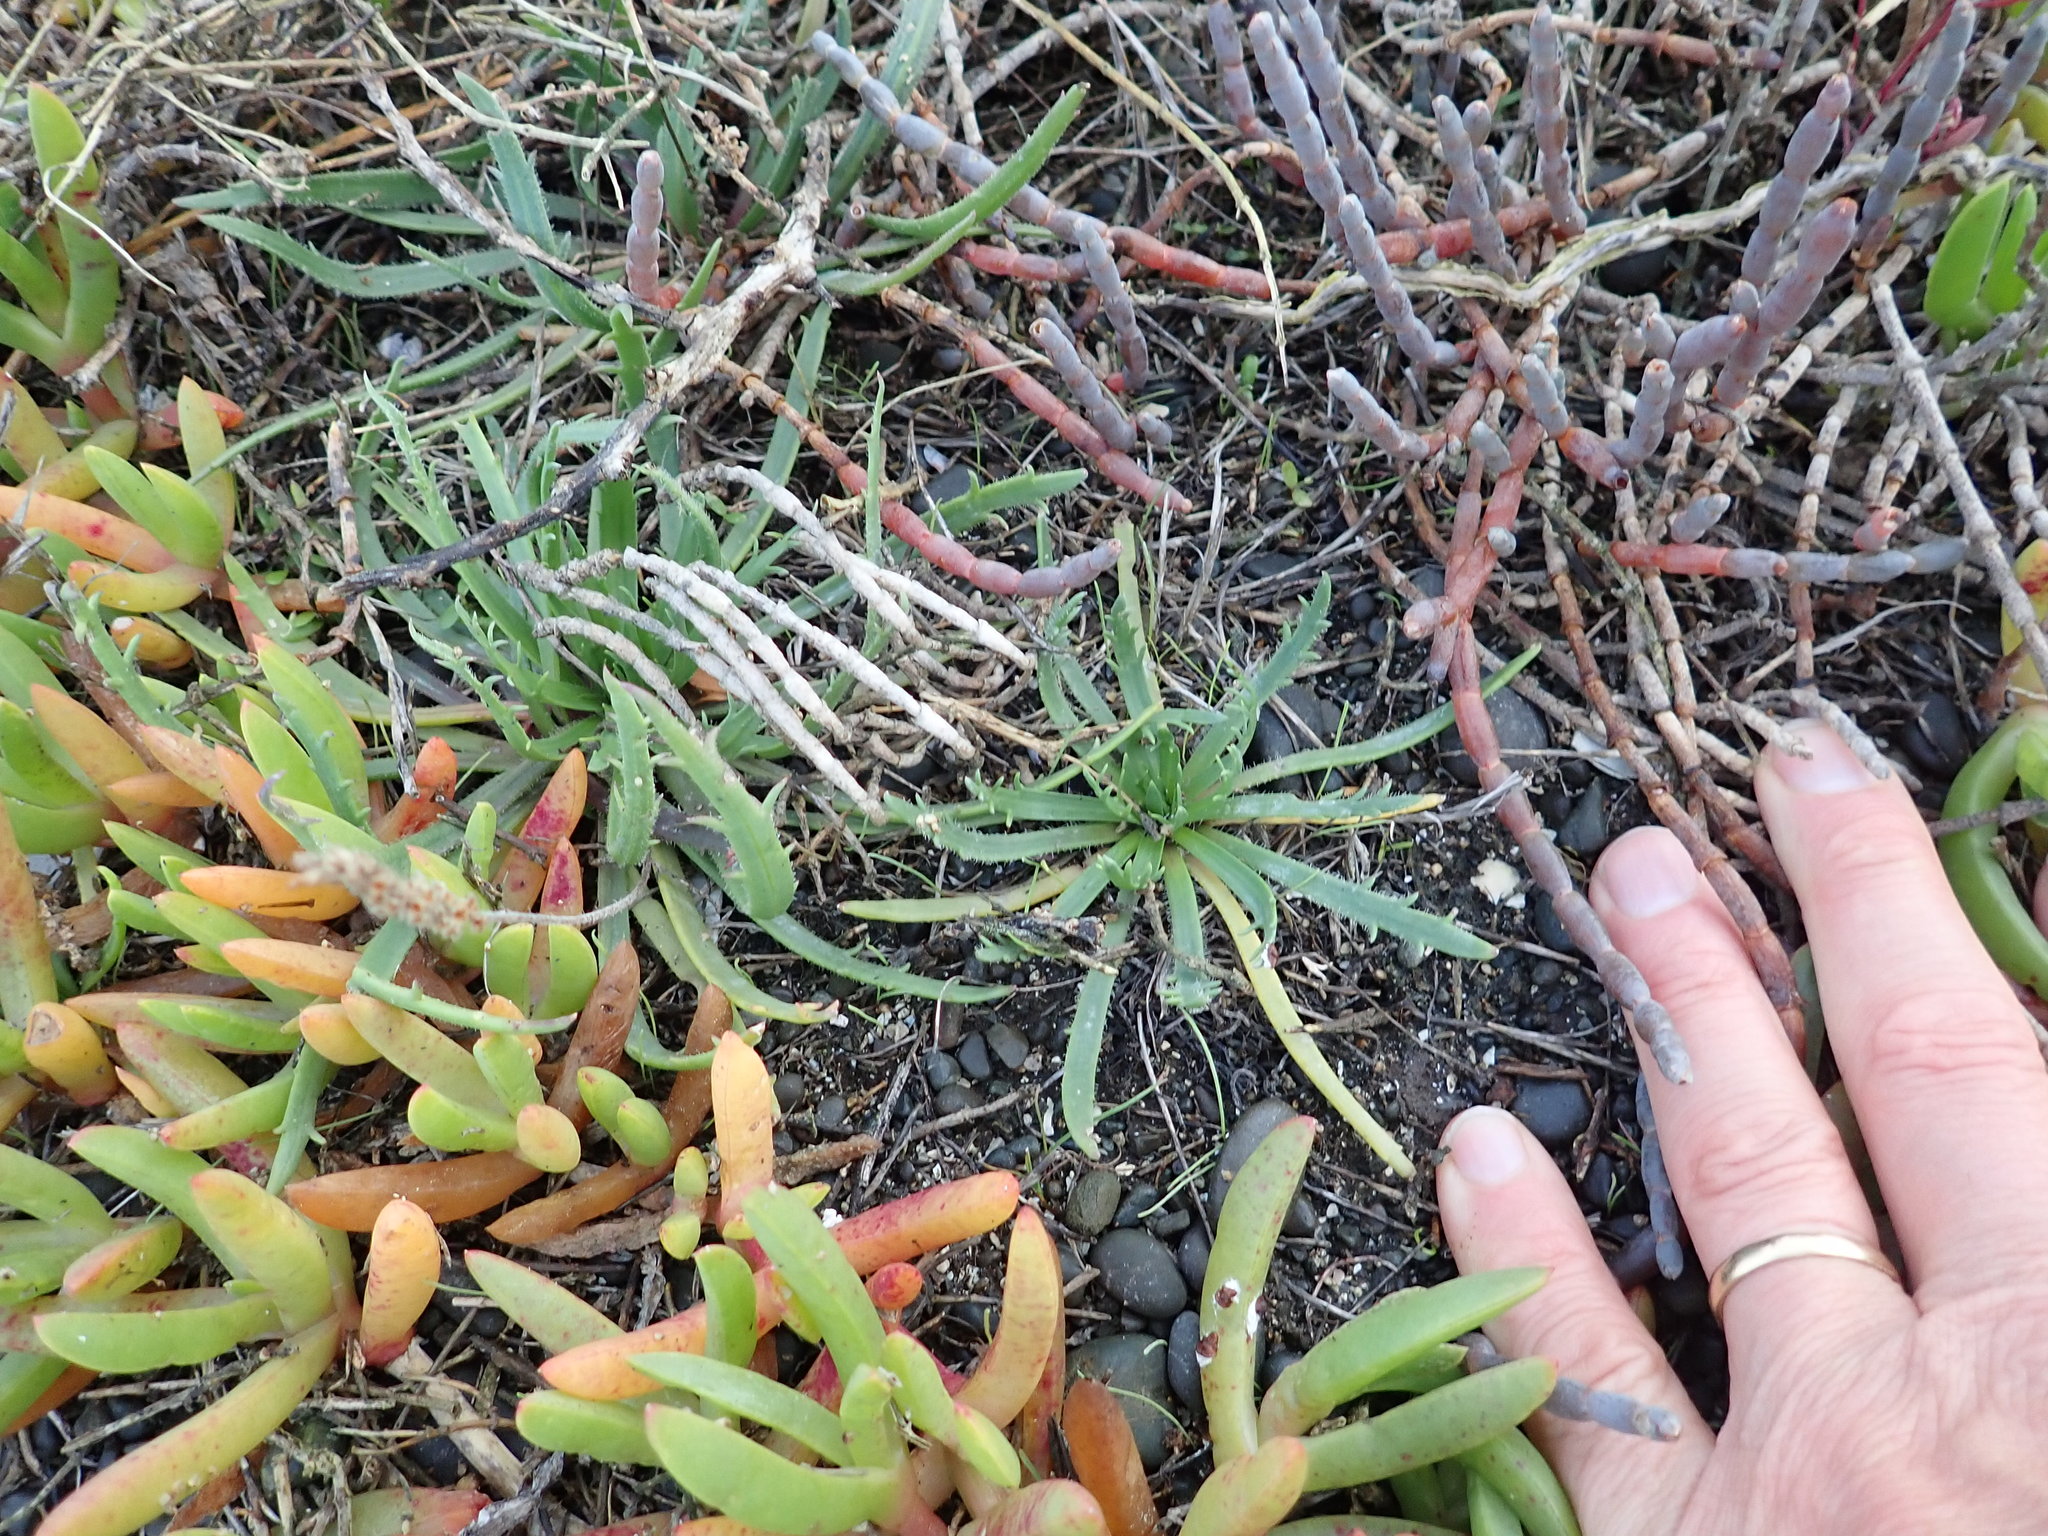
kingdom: Plantae
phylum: Tracheophyta
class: Magnoliopsida
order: Lamiales
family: Plantaginaceae
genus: Plantago
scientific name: Plantago coronopus
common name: Buck's-horn plantain
